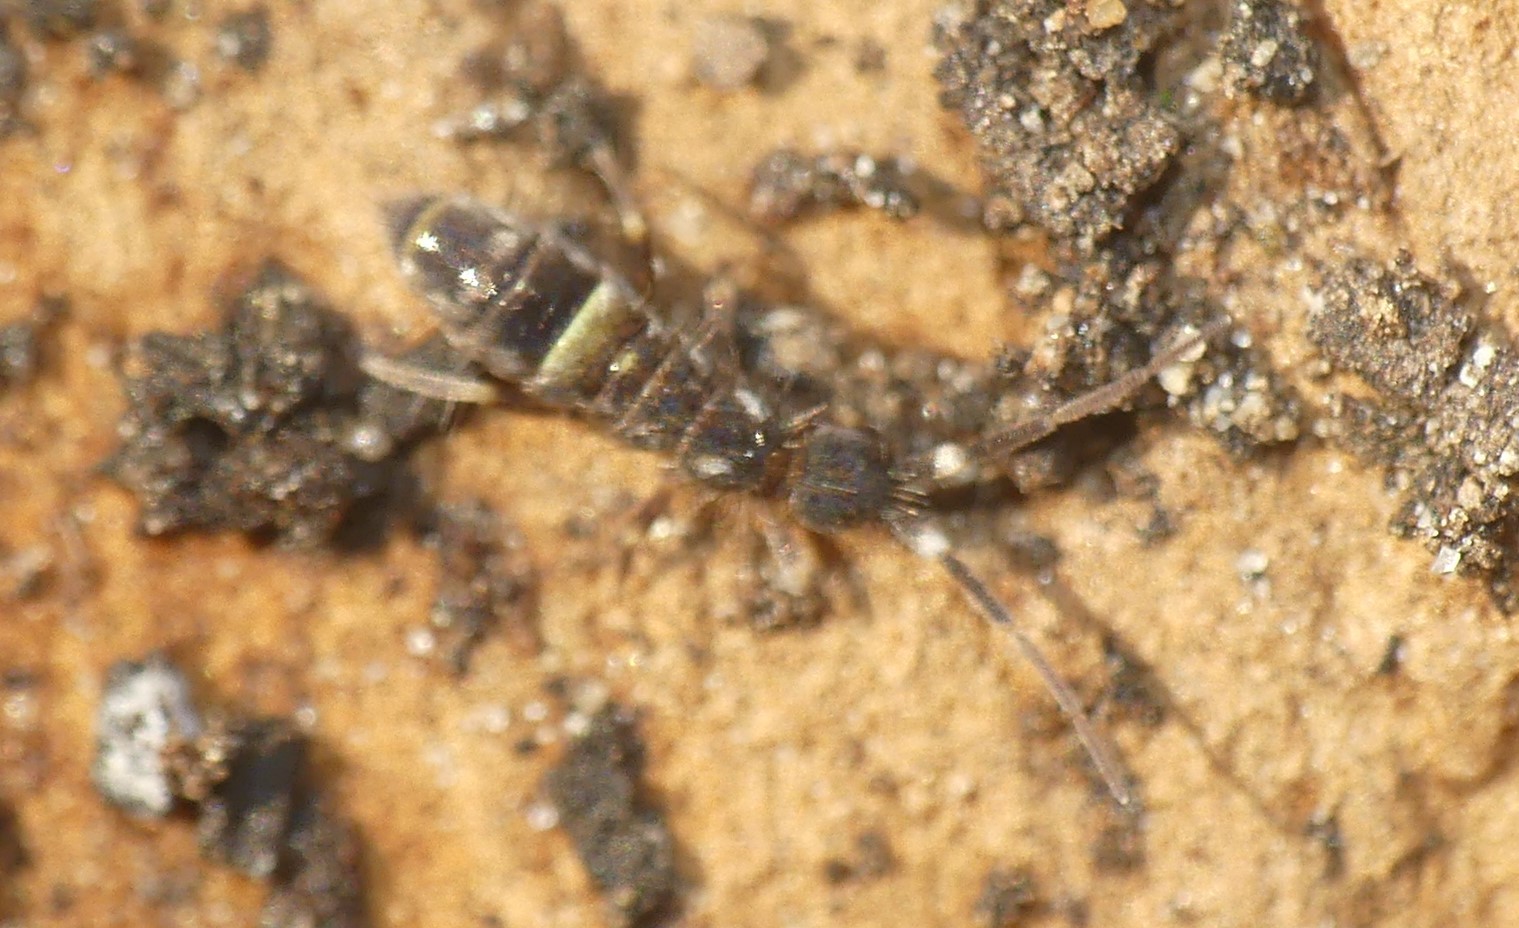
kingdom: Animalia
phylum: Arthropoda
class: Collembola
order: Entomobryomorpha
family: Orchesellidae
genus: Orchesella
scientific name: Orchesella cincta
